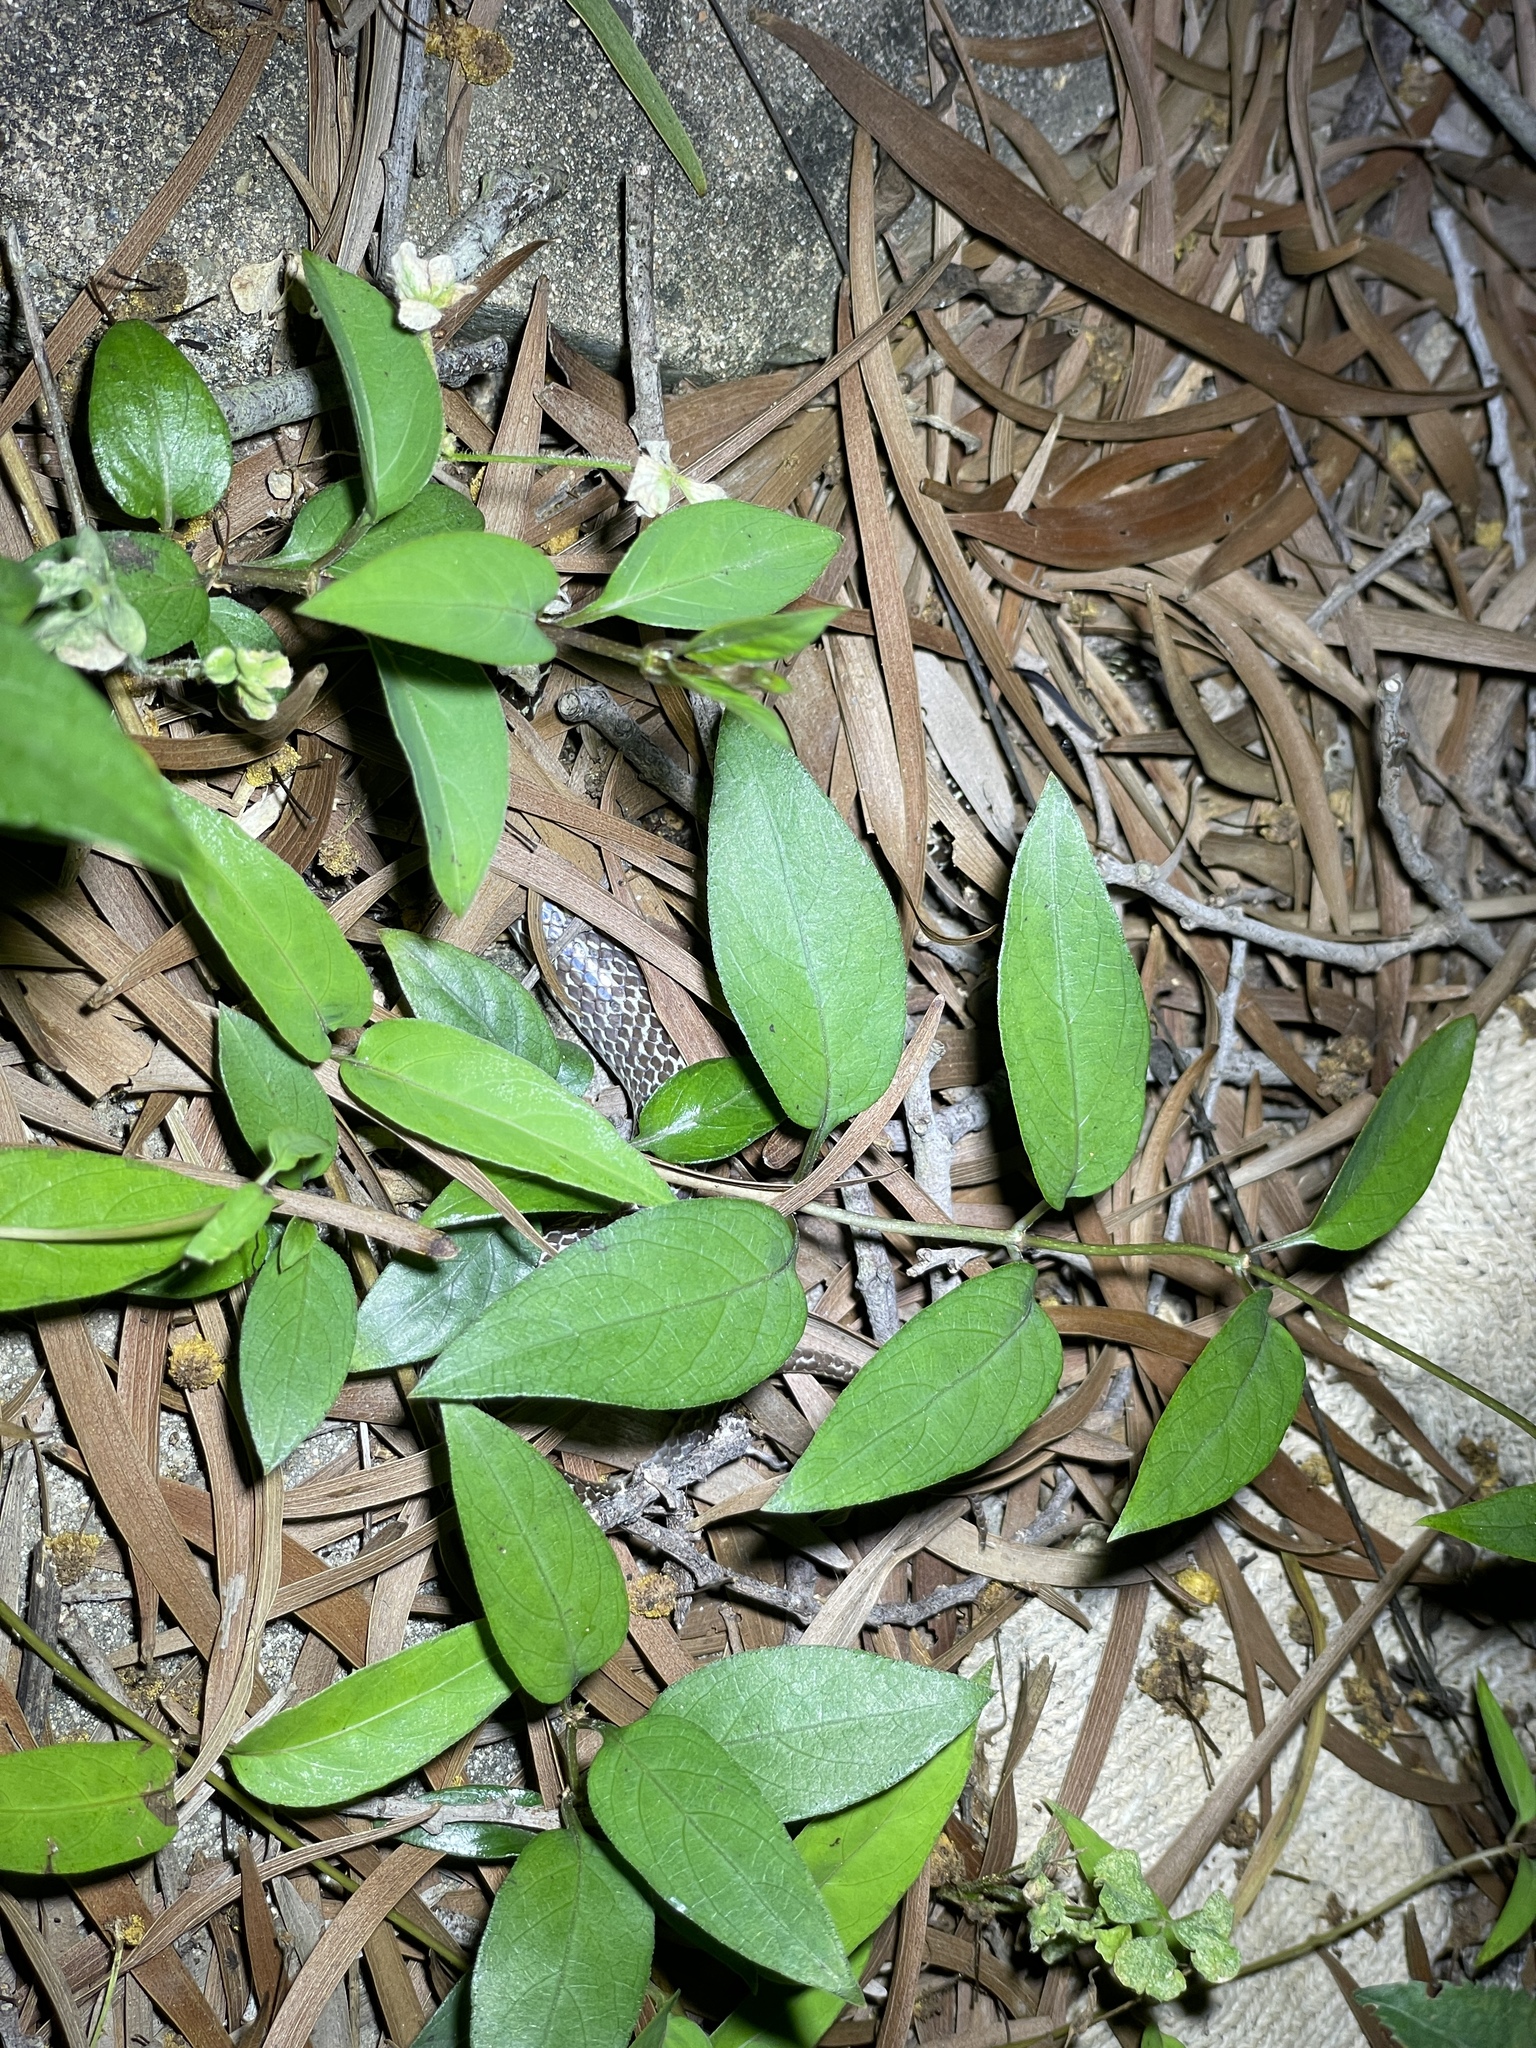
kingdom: Animalia
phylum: Chordata
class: Squamata
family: Colubridae
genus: Lycodon
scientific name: Lycodon capucinus
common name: Common wold snake/house snake
